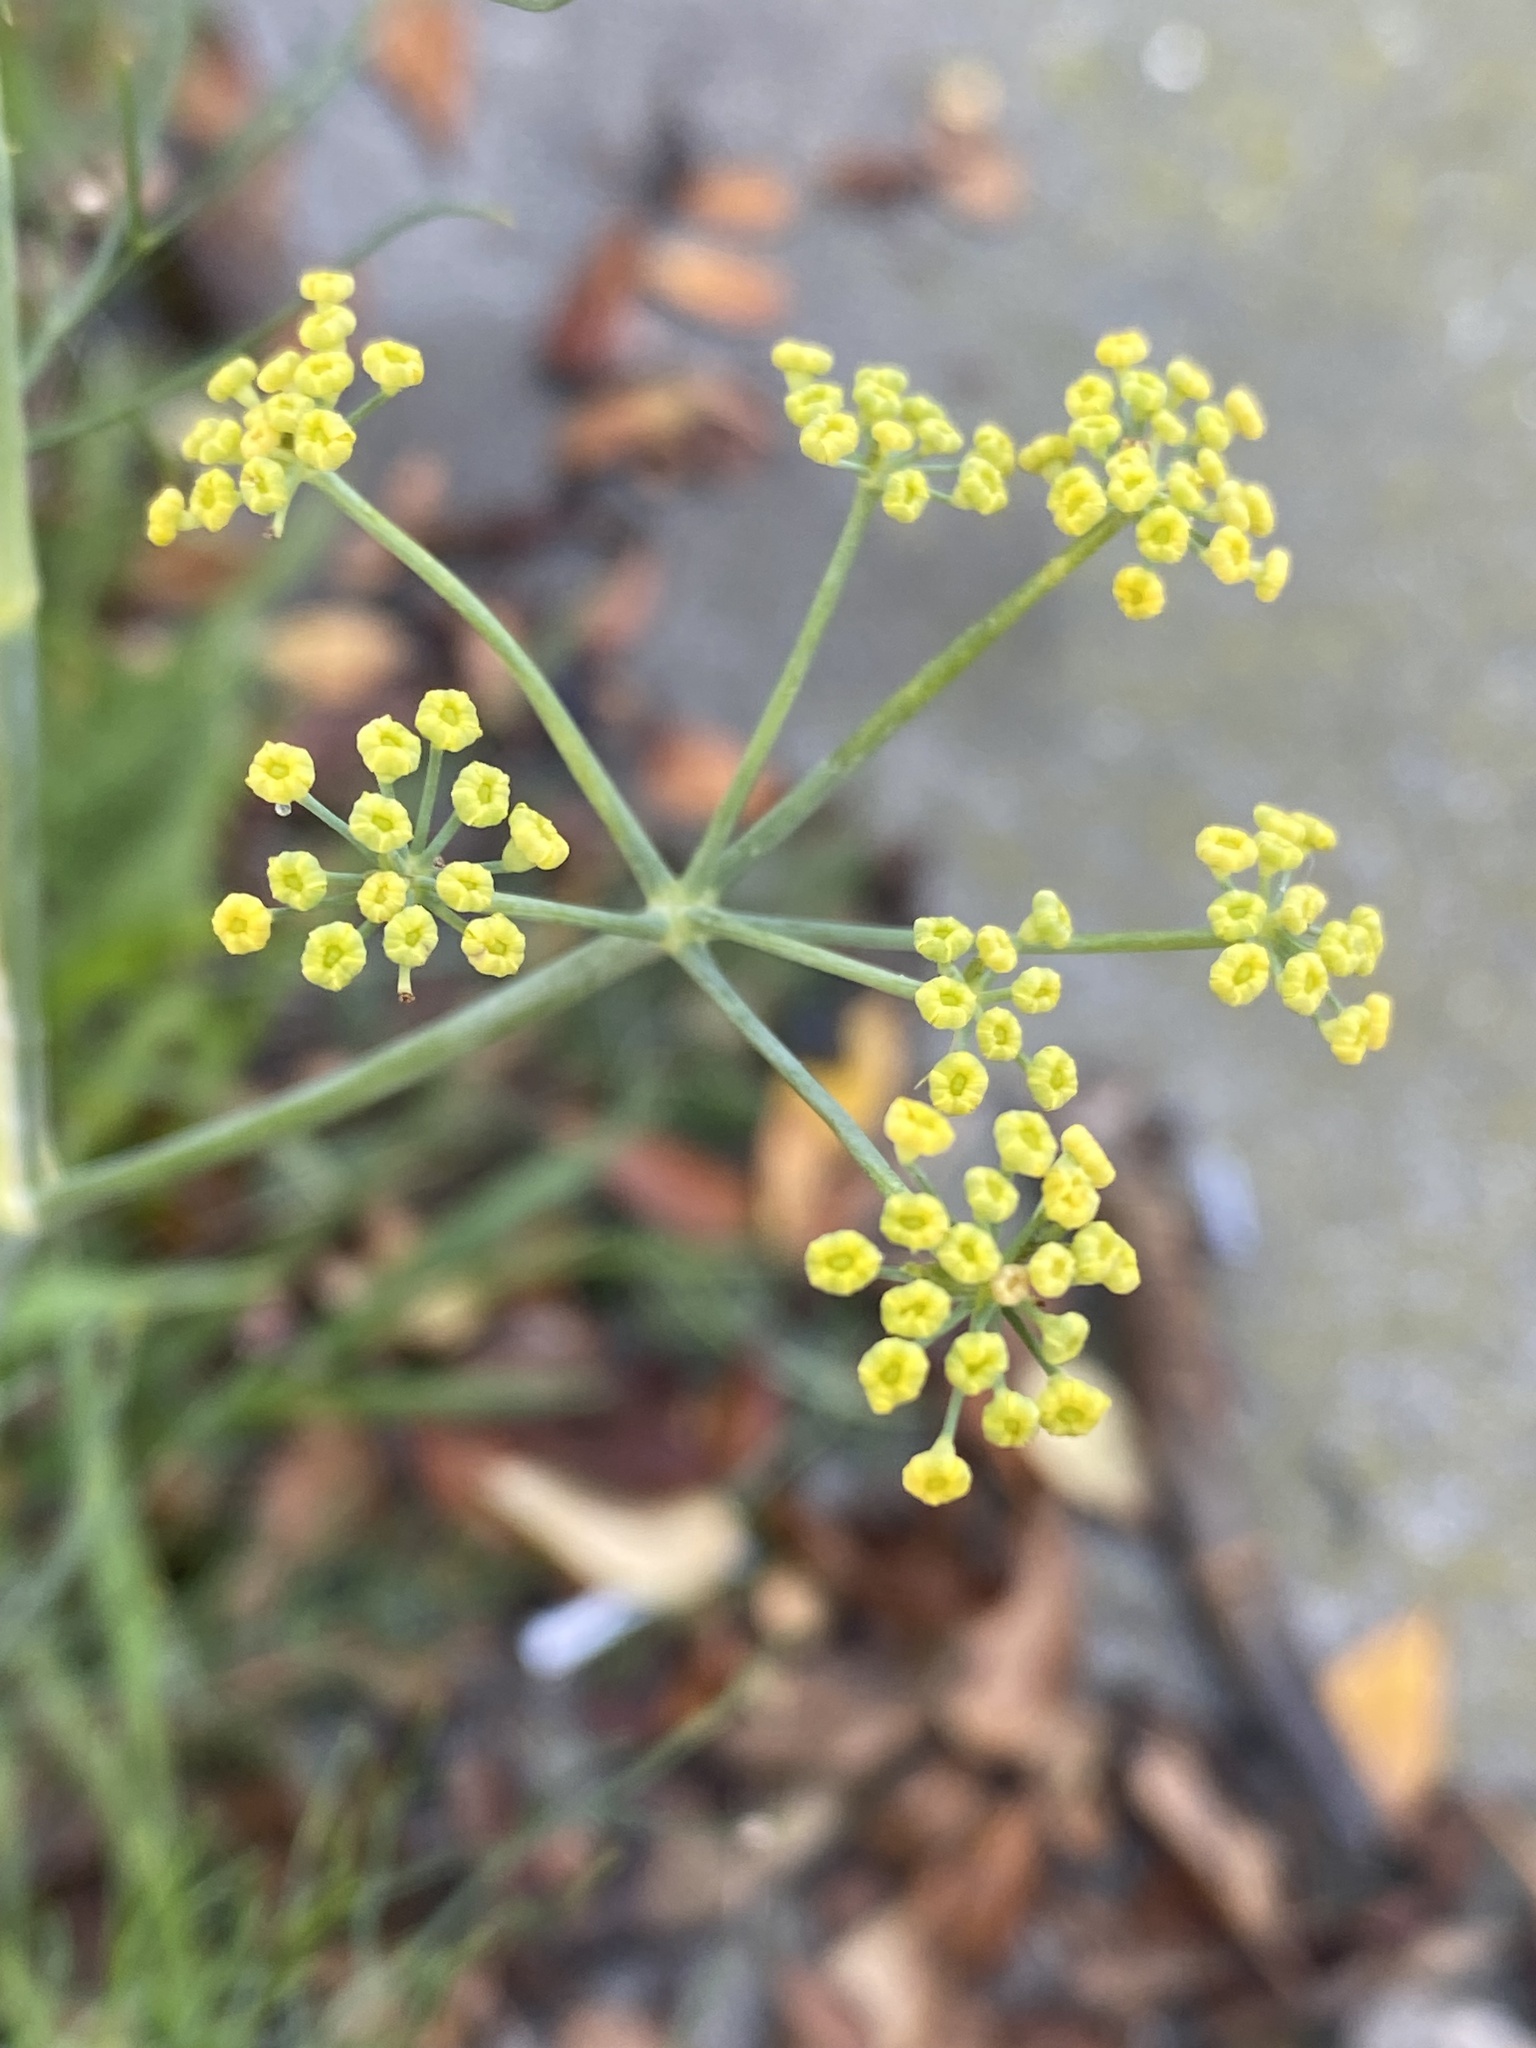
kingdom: Plantae
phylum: Tracheophyta
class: Magnoliopsida
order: Apiales
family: Apiaceae
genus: Foeniculum
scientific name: Foeniculum vulgare
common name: Fennel
